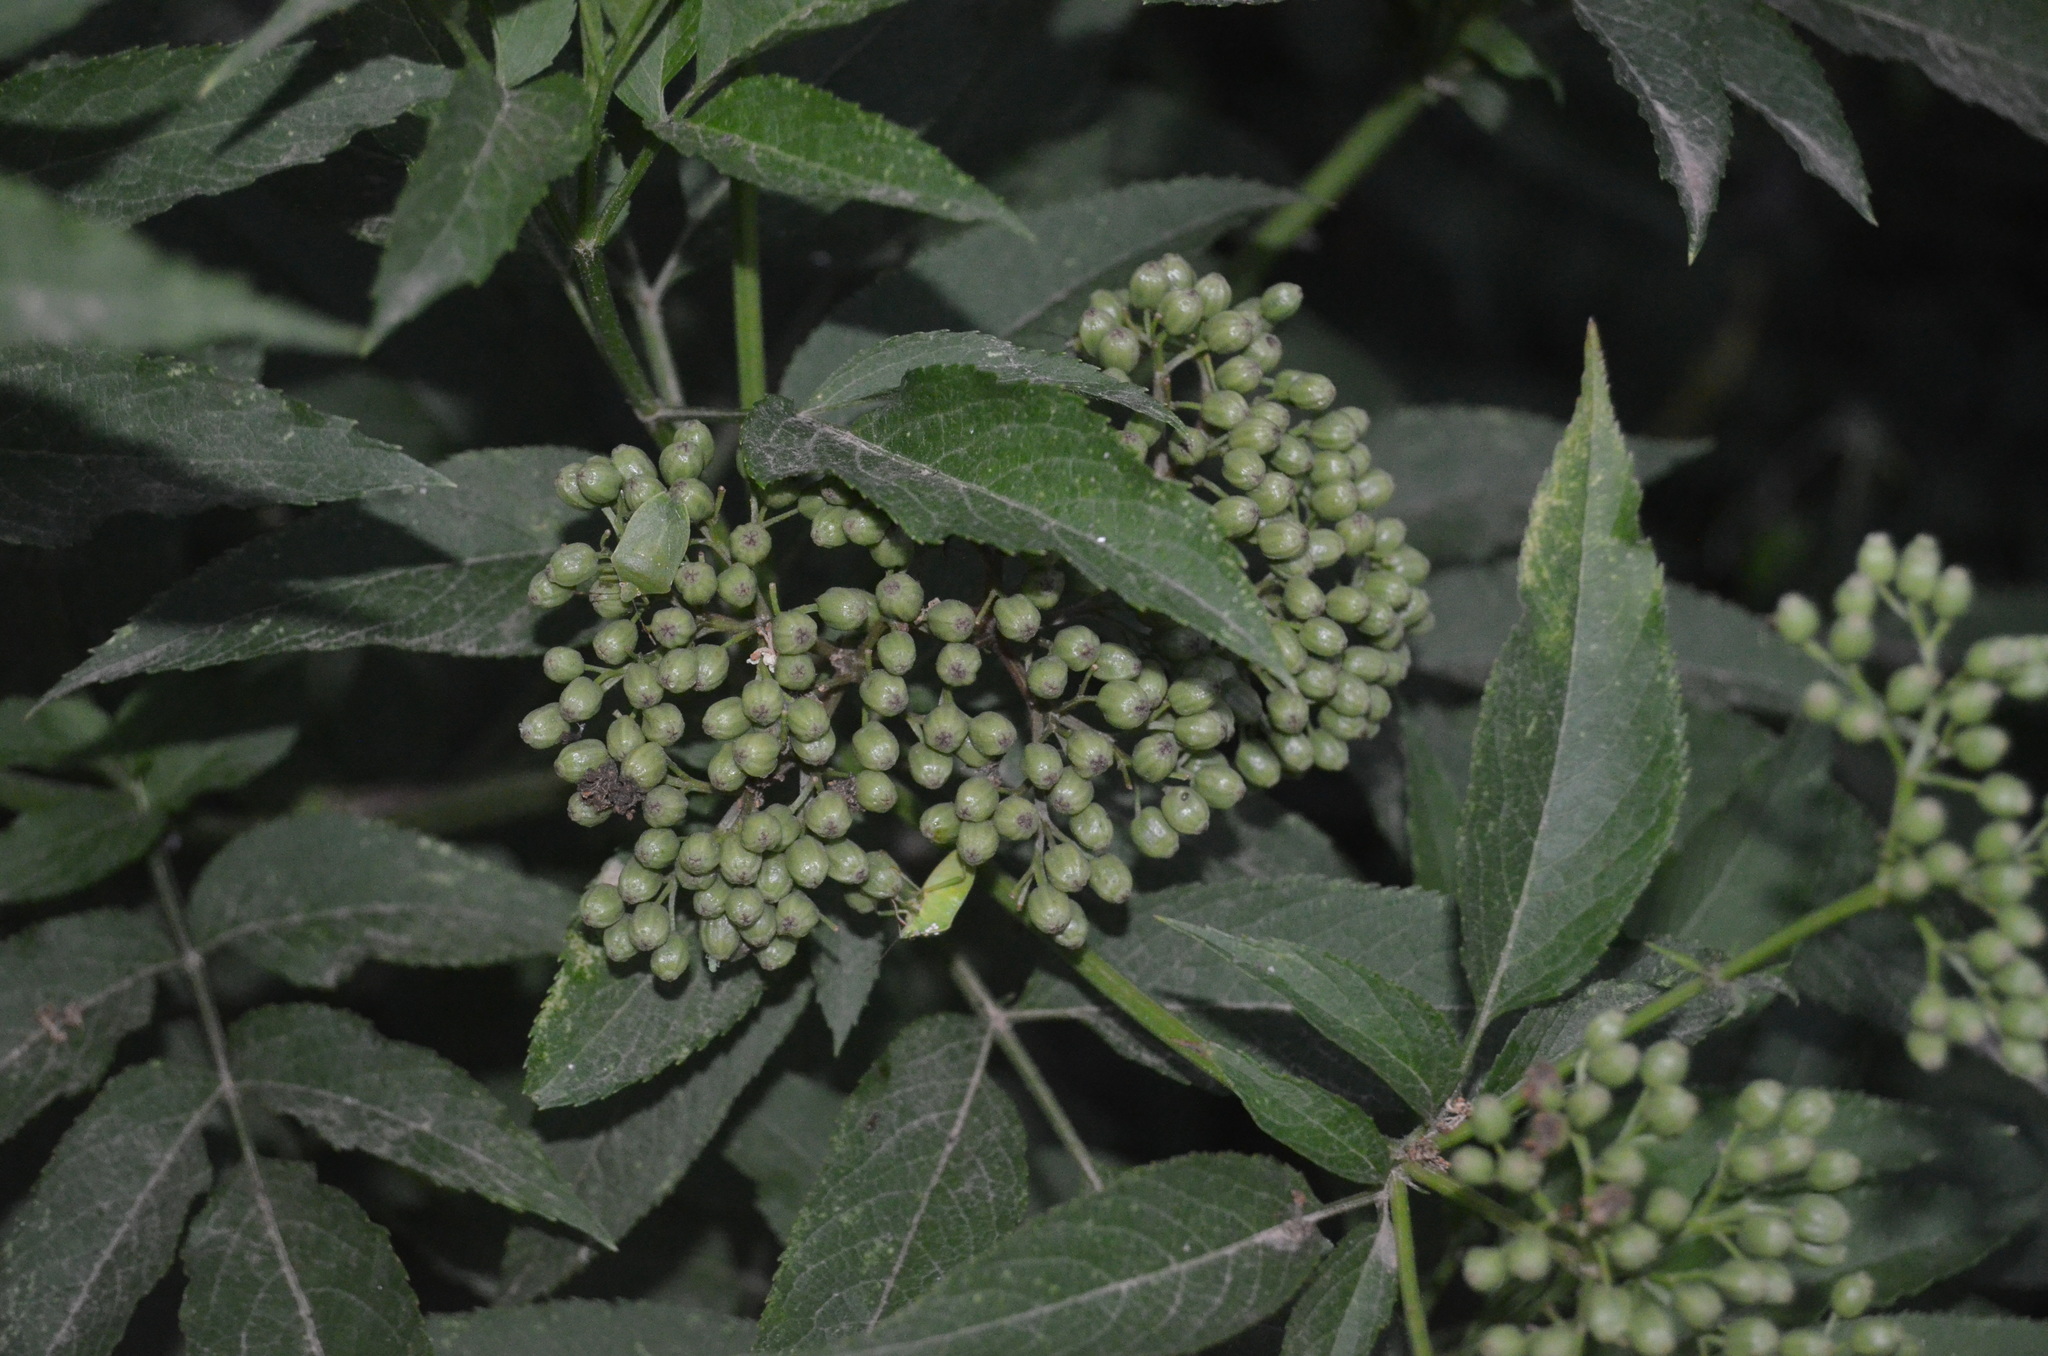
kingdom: Plantae
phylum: Tracheophyta
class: Magnoliopsida
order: Dipsacales
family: Viburnaceae
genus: Sambucus
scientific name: Sambucus ebulus
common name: Dwarf elder
